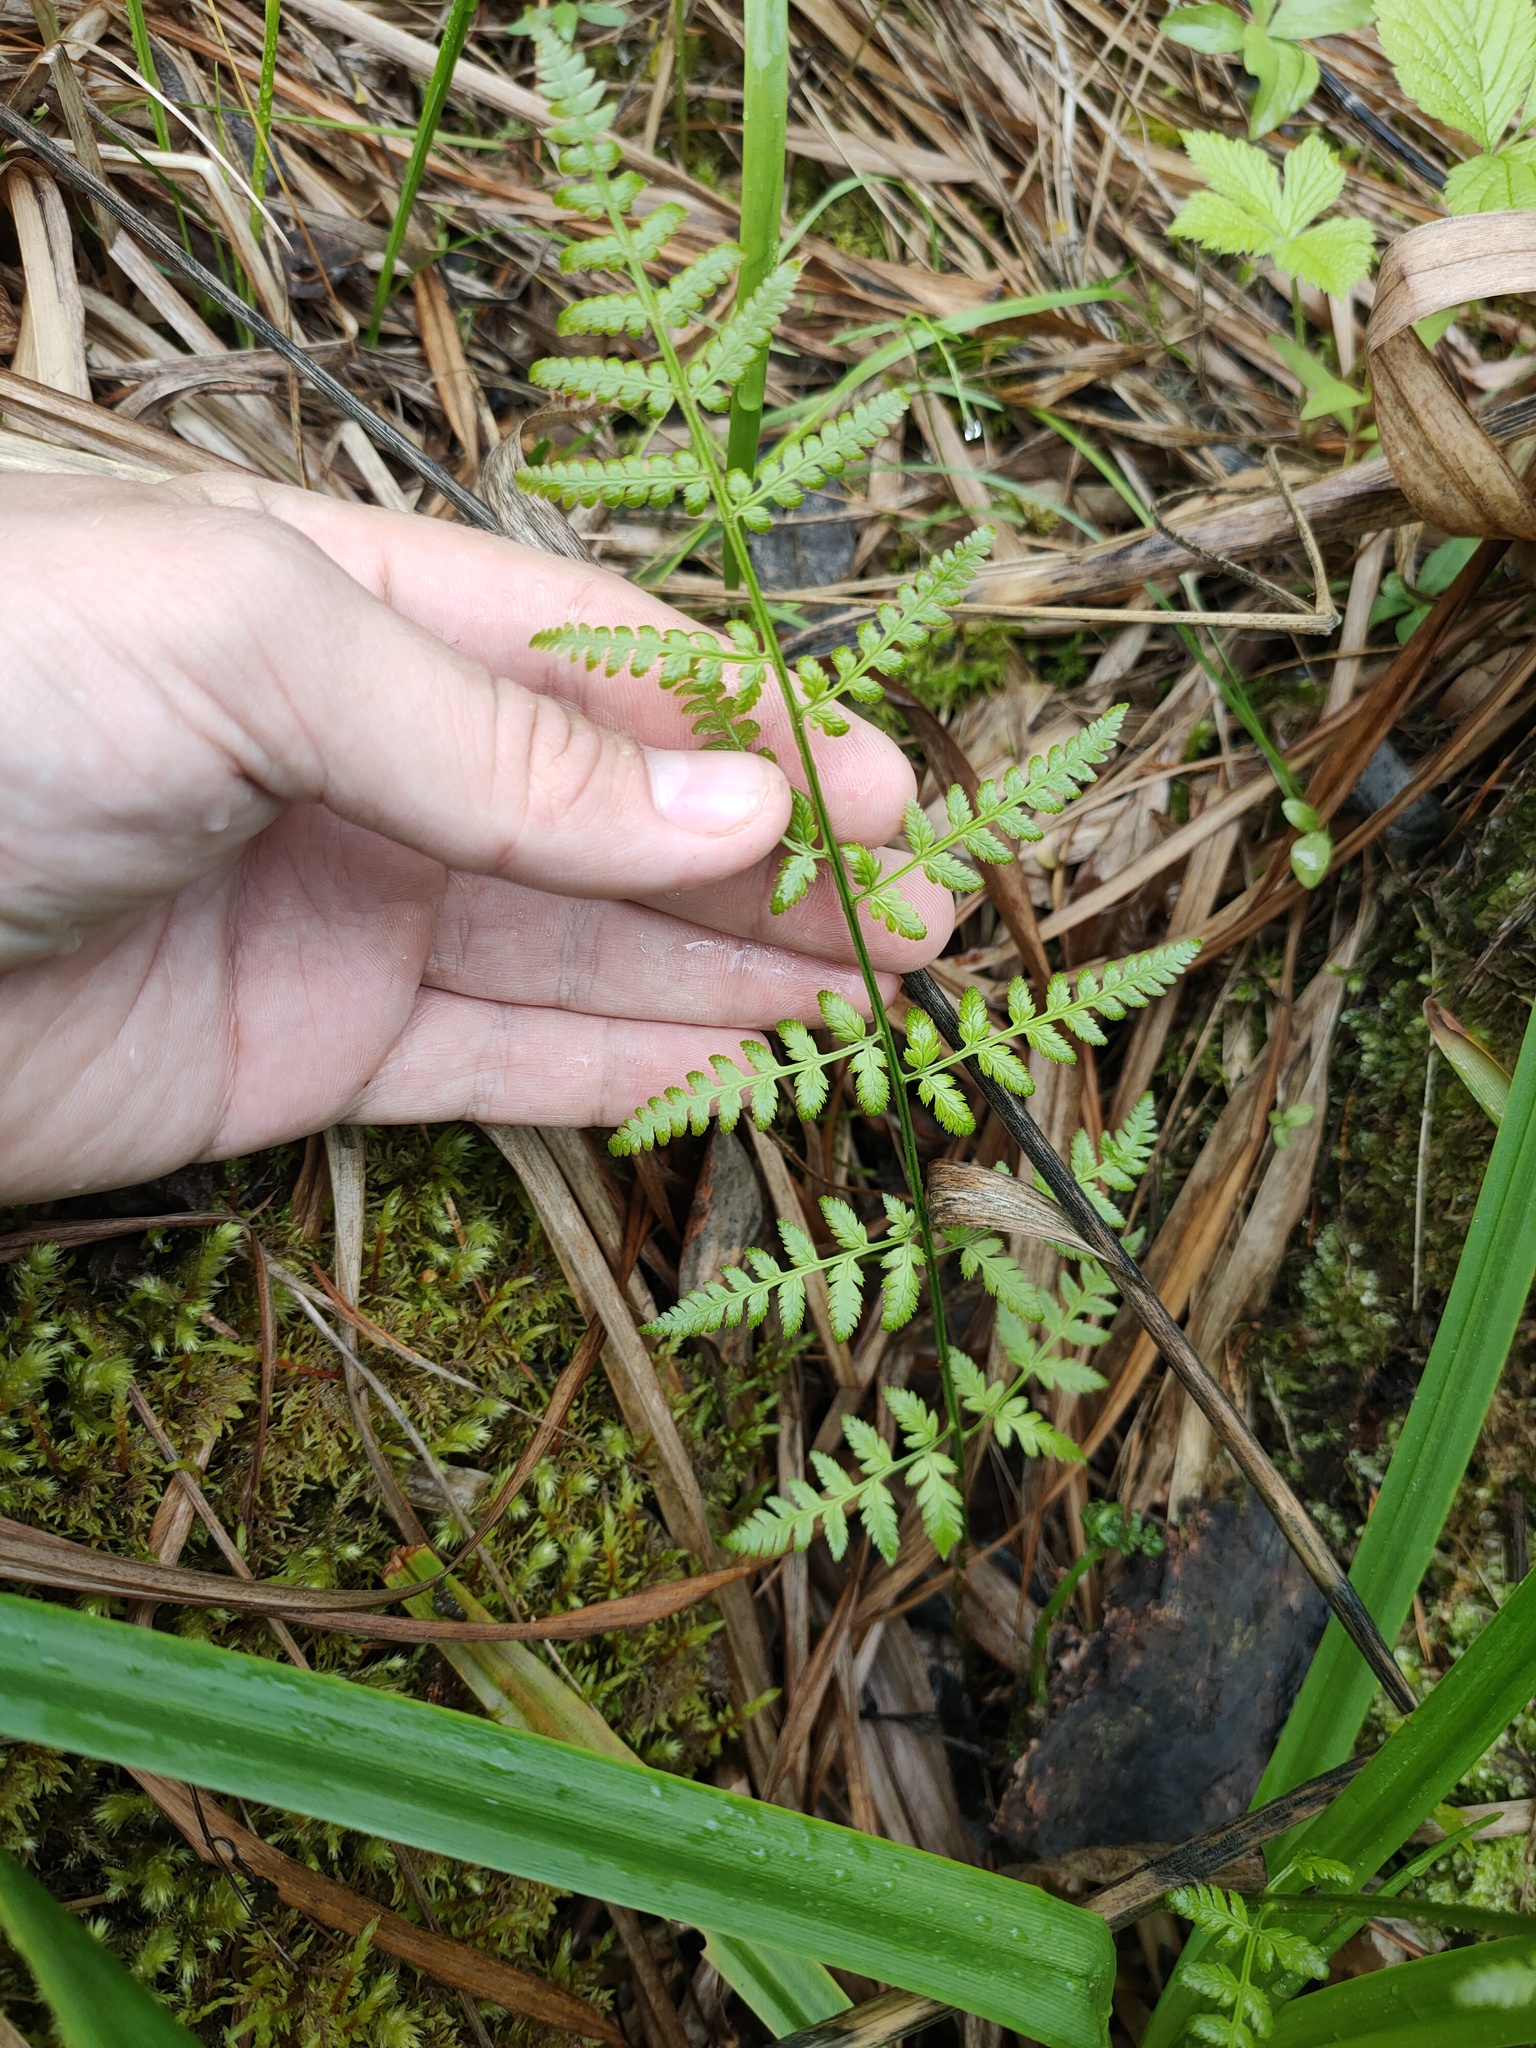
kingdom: Plantae
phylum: Tracheophyta
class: Polypodiopsida
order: Polypodiales
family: Dryopteridaceae
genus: Dryopteris
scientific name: Dryopteris carthusiana
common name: Narrow buckler-fern
